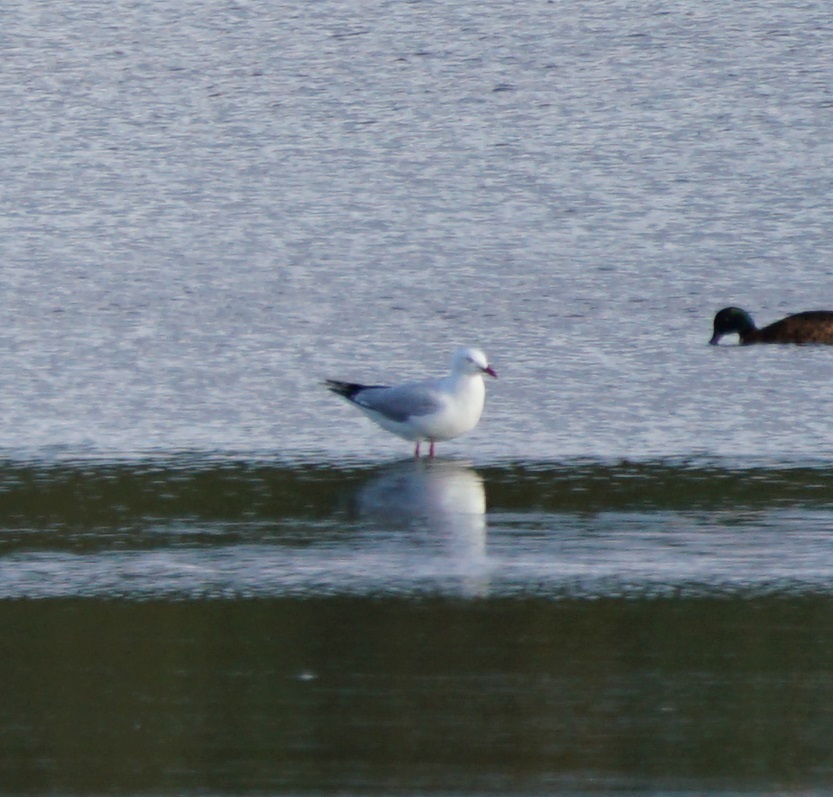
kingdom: Animalia
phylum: Chordata
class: Aves
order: Charadriiformes
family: Laridae
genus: Chroicocephalus
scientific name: Chroicocephalus novaehollandiae
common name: Silver gull
